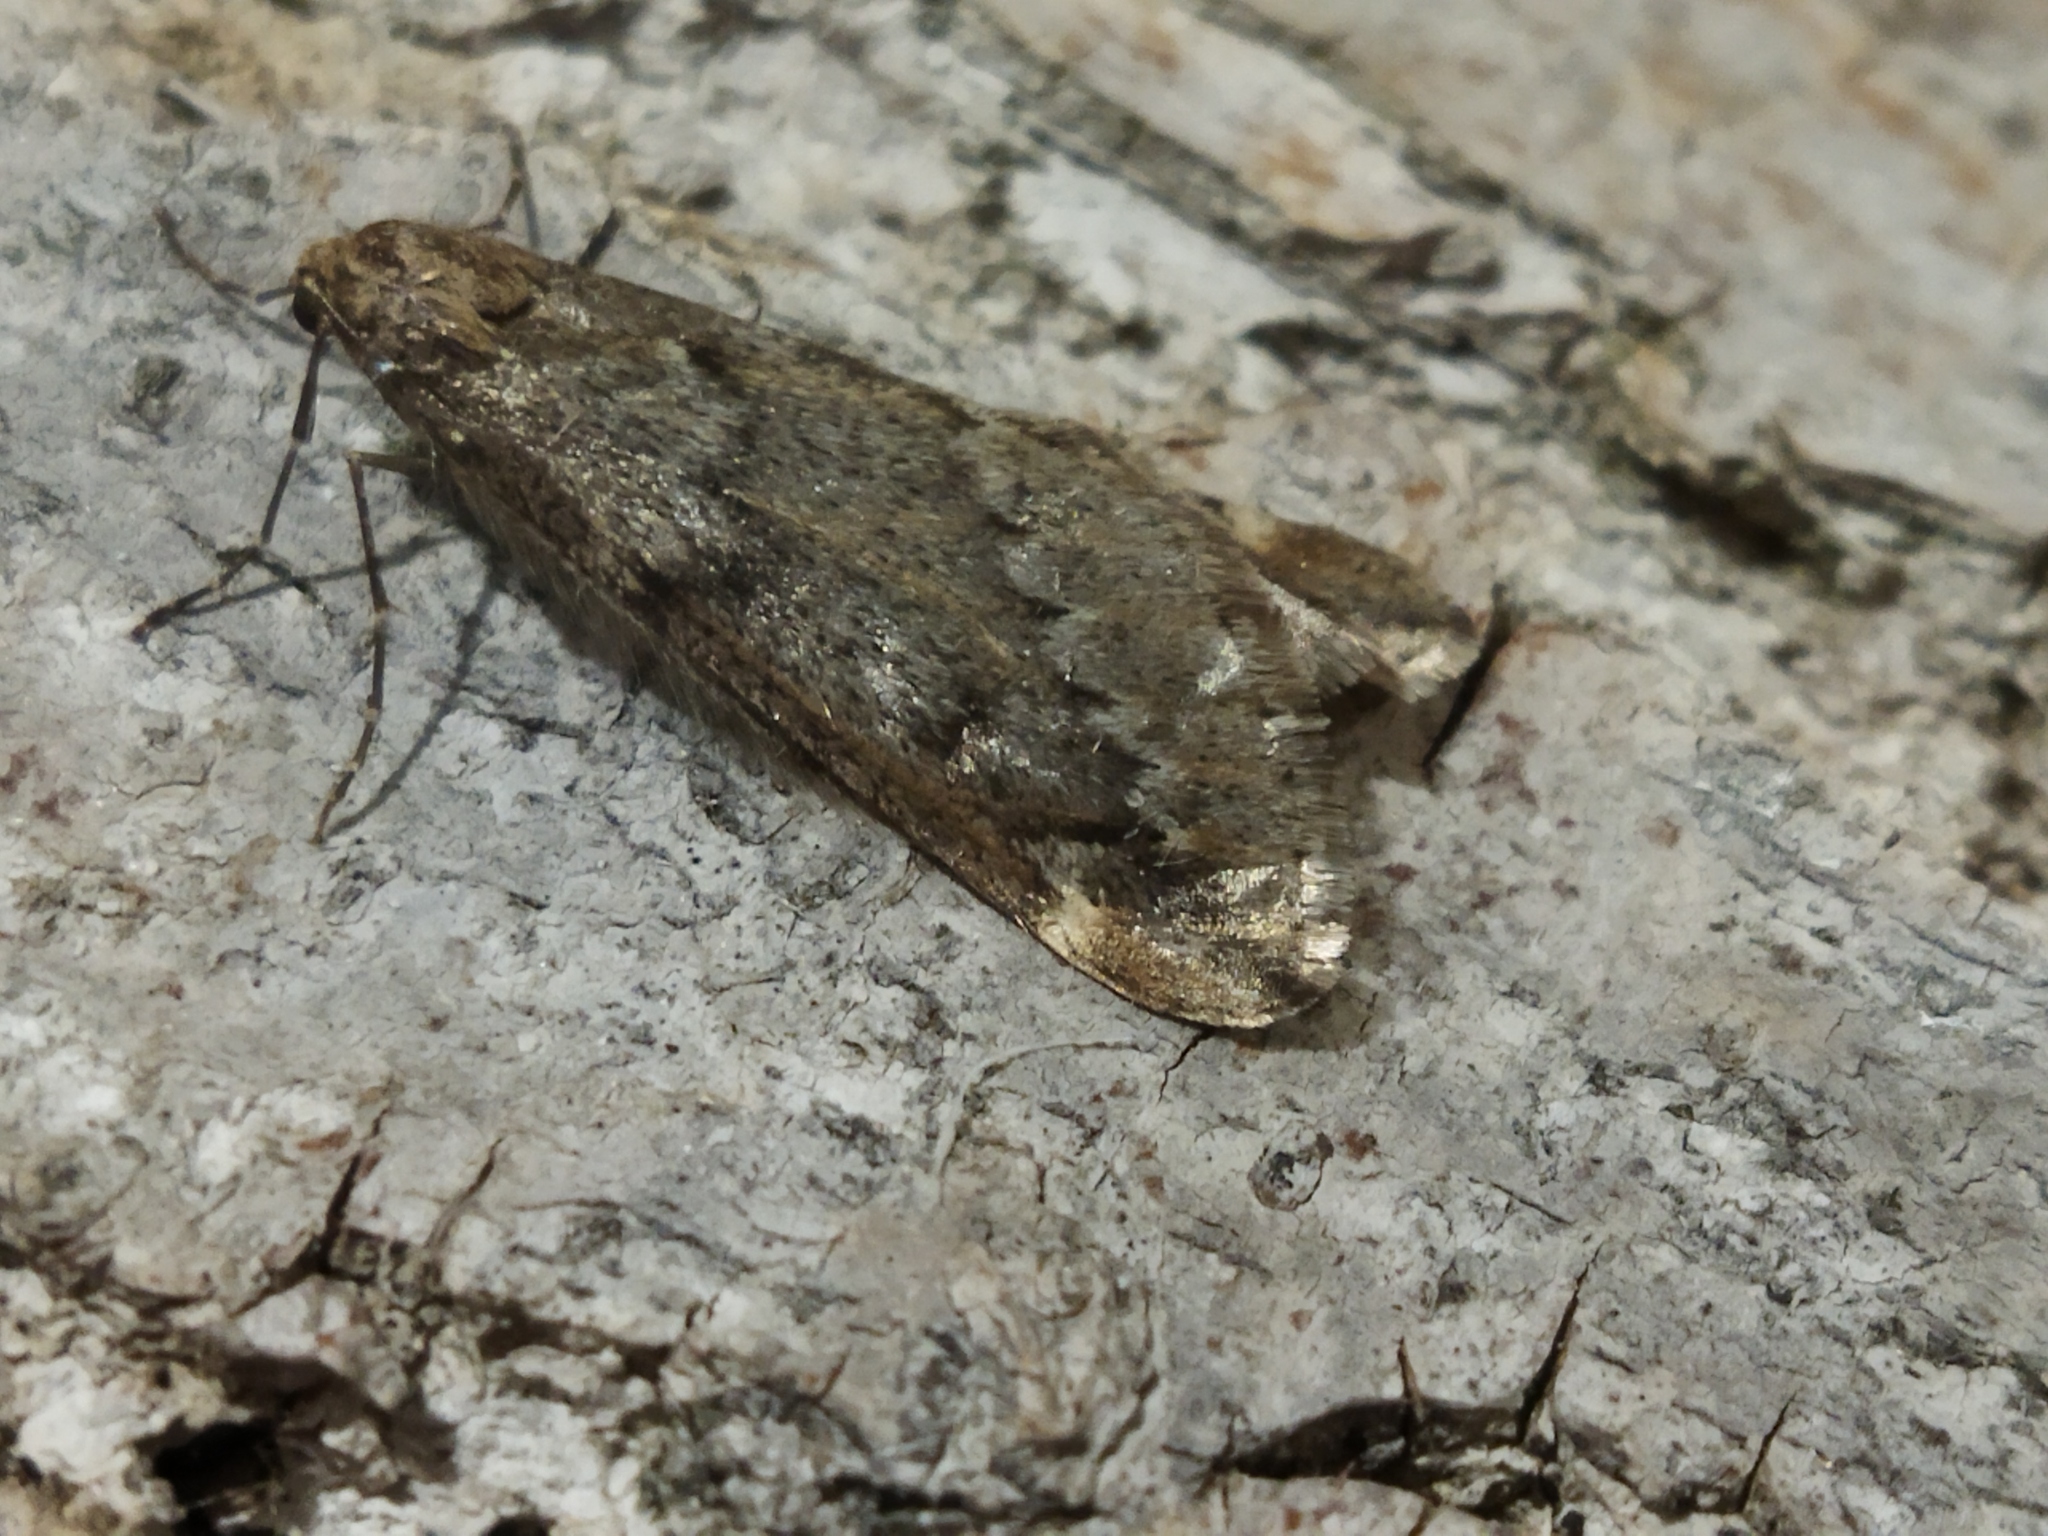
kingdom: Animalia
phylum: Arthropoda
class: Insecta
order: Lepidoptera
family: Geometridae
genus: Alsophila
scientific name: Alsophila aescularia
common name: March moth
